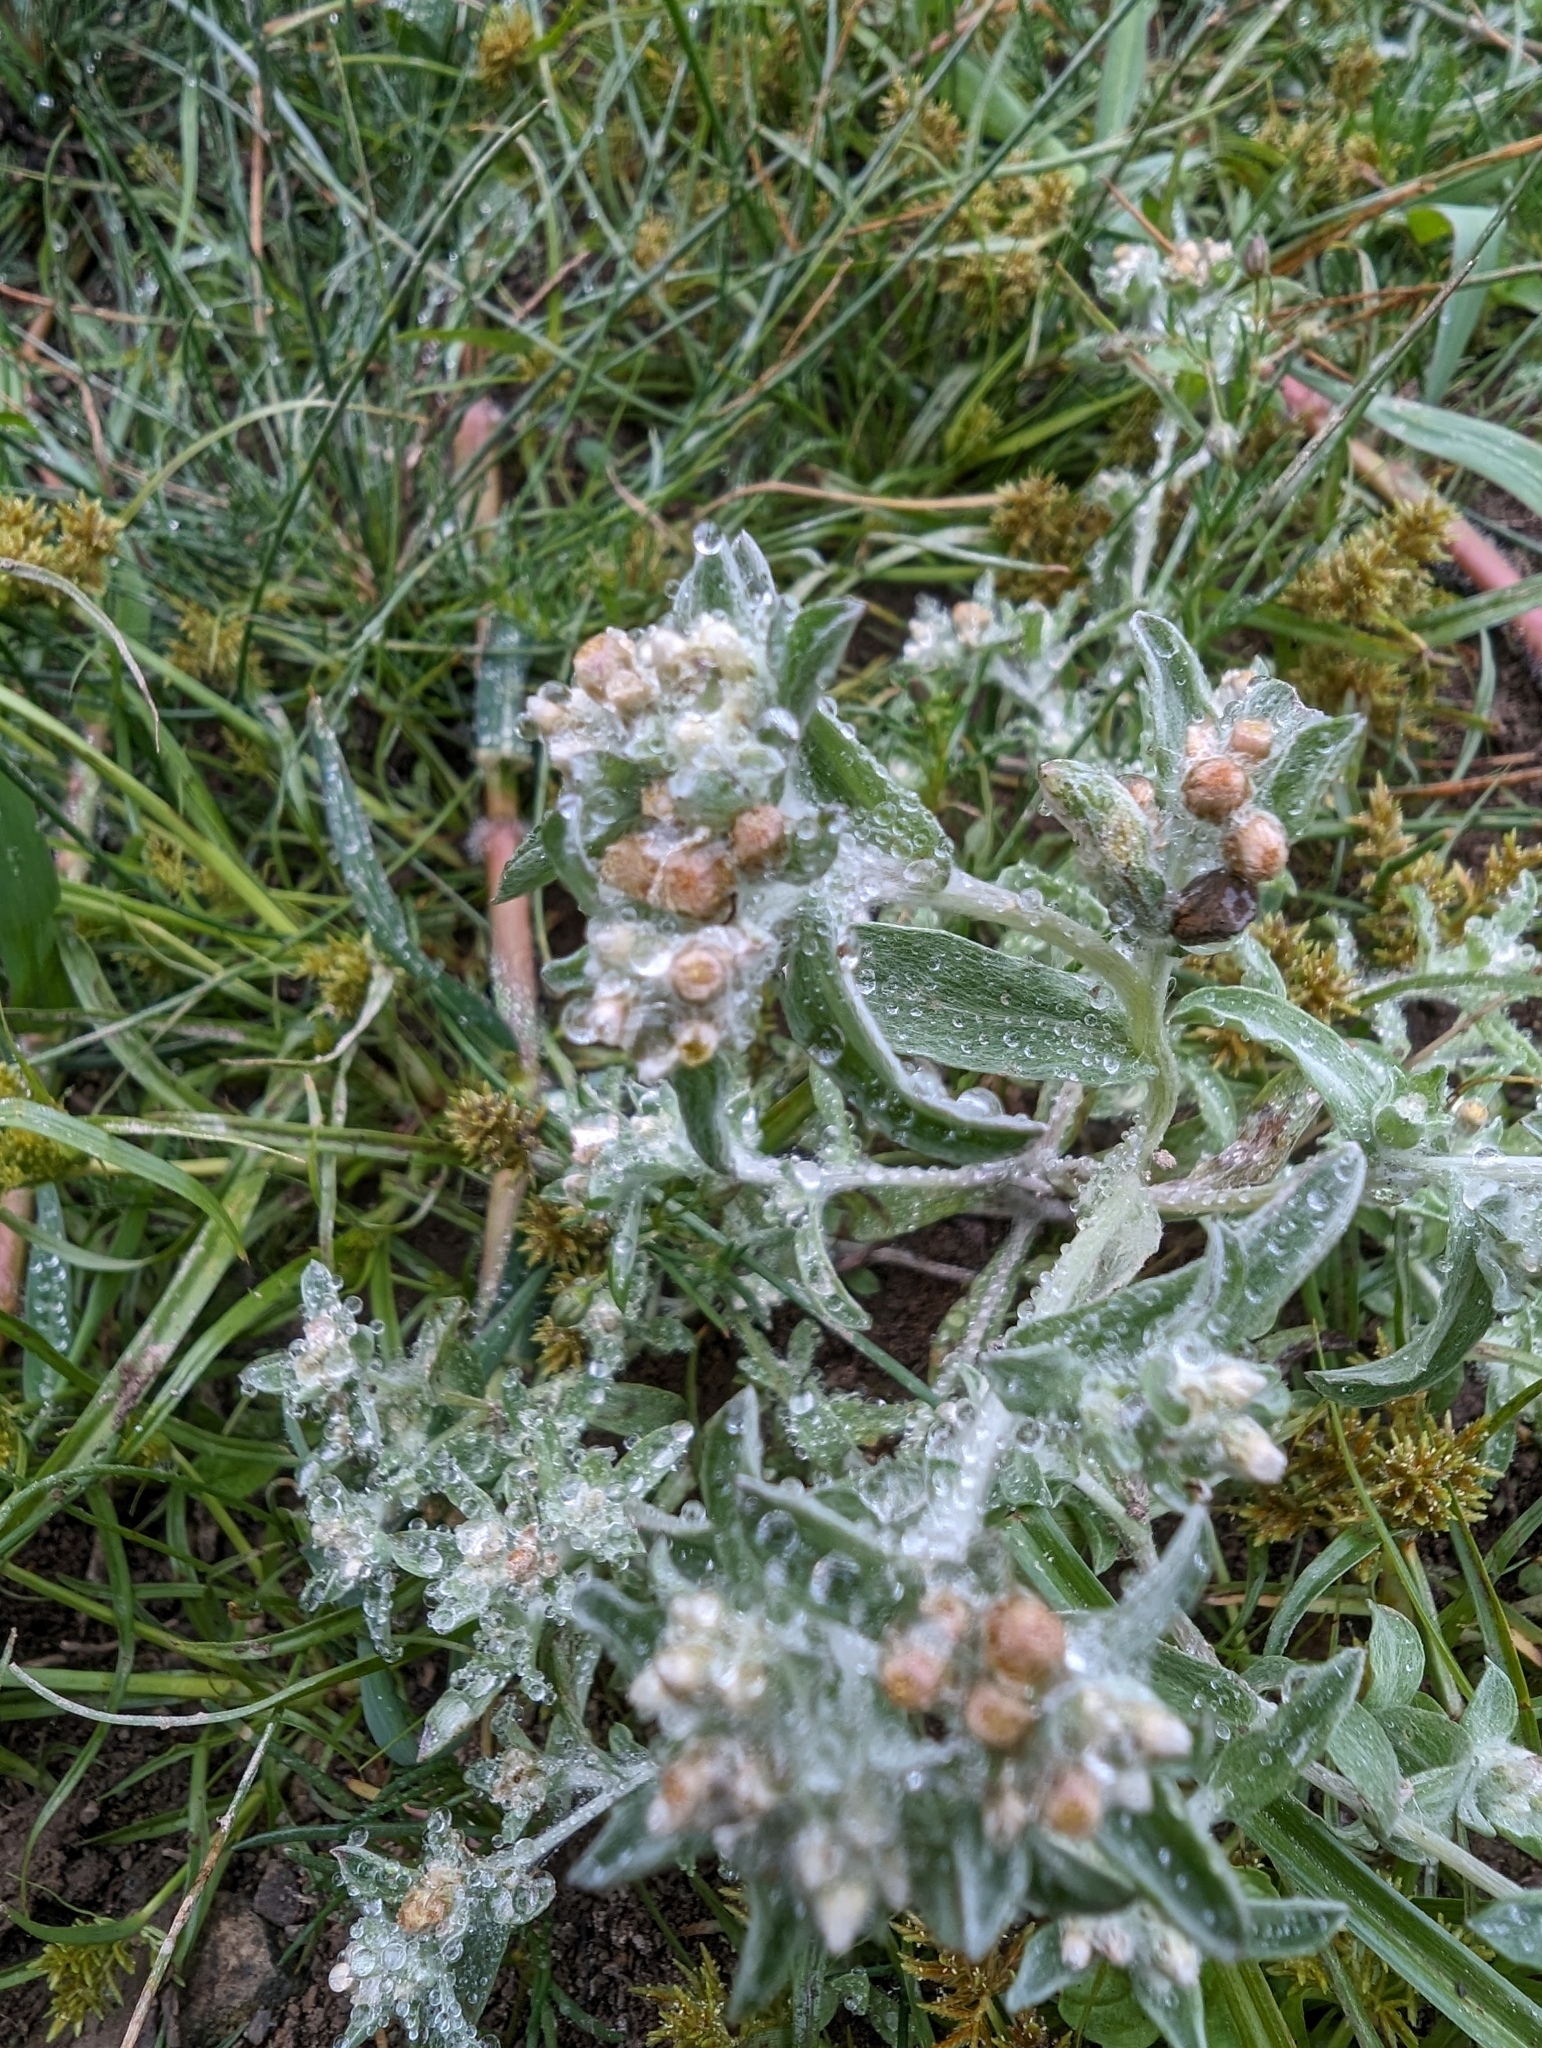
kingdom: Plantae
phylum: Tracheophyta
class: Magnoliopsida
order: Asterales
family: Asteraceae
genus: Gnaphalium
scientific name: Gnaphalium palustre
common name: Western marsh cudweed
